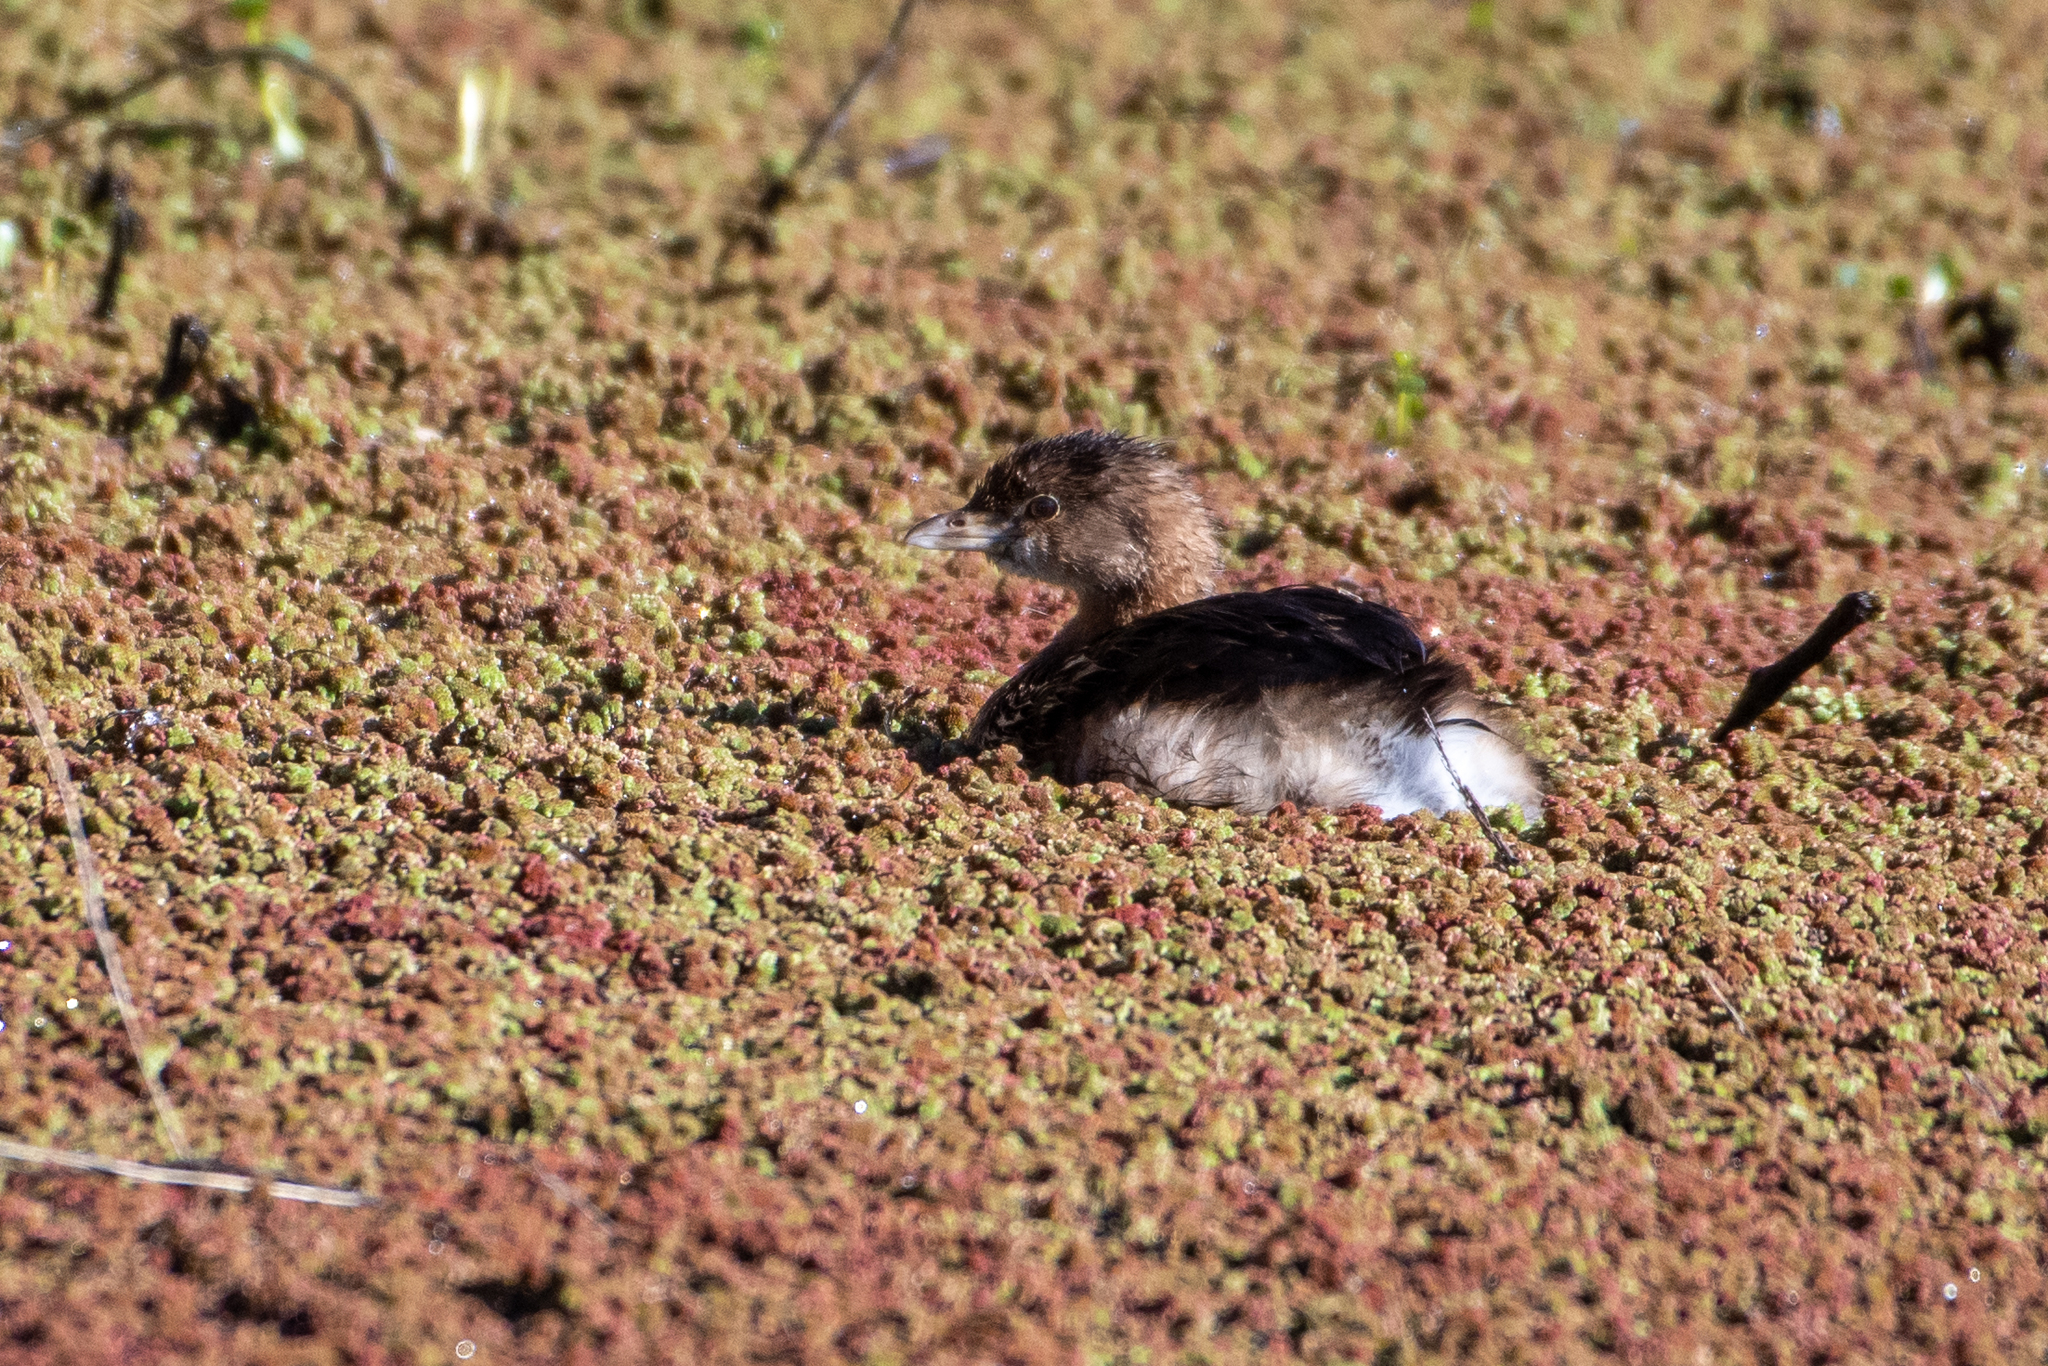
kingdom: Animalia
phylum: Chordata
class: Aves
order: Podicipediformes
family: Podicipedidae
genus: Podilymbus
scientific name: Podilymbus podiceps
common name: Pied-billed grebe
